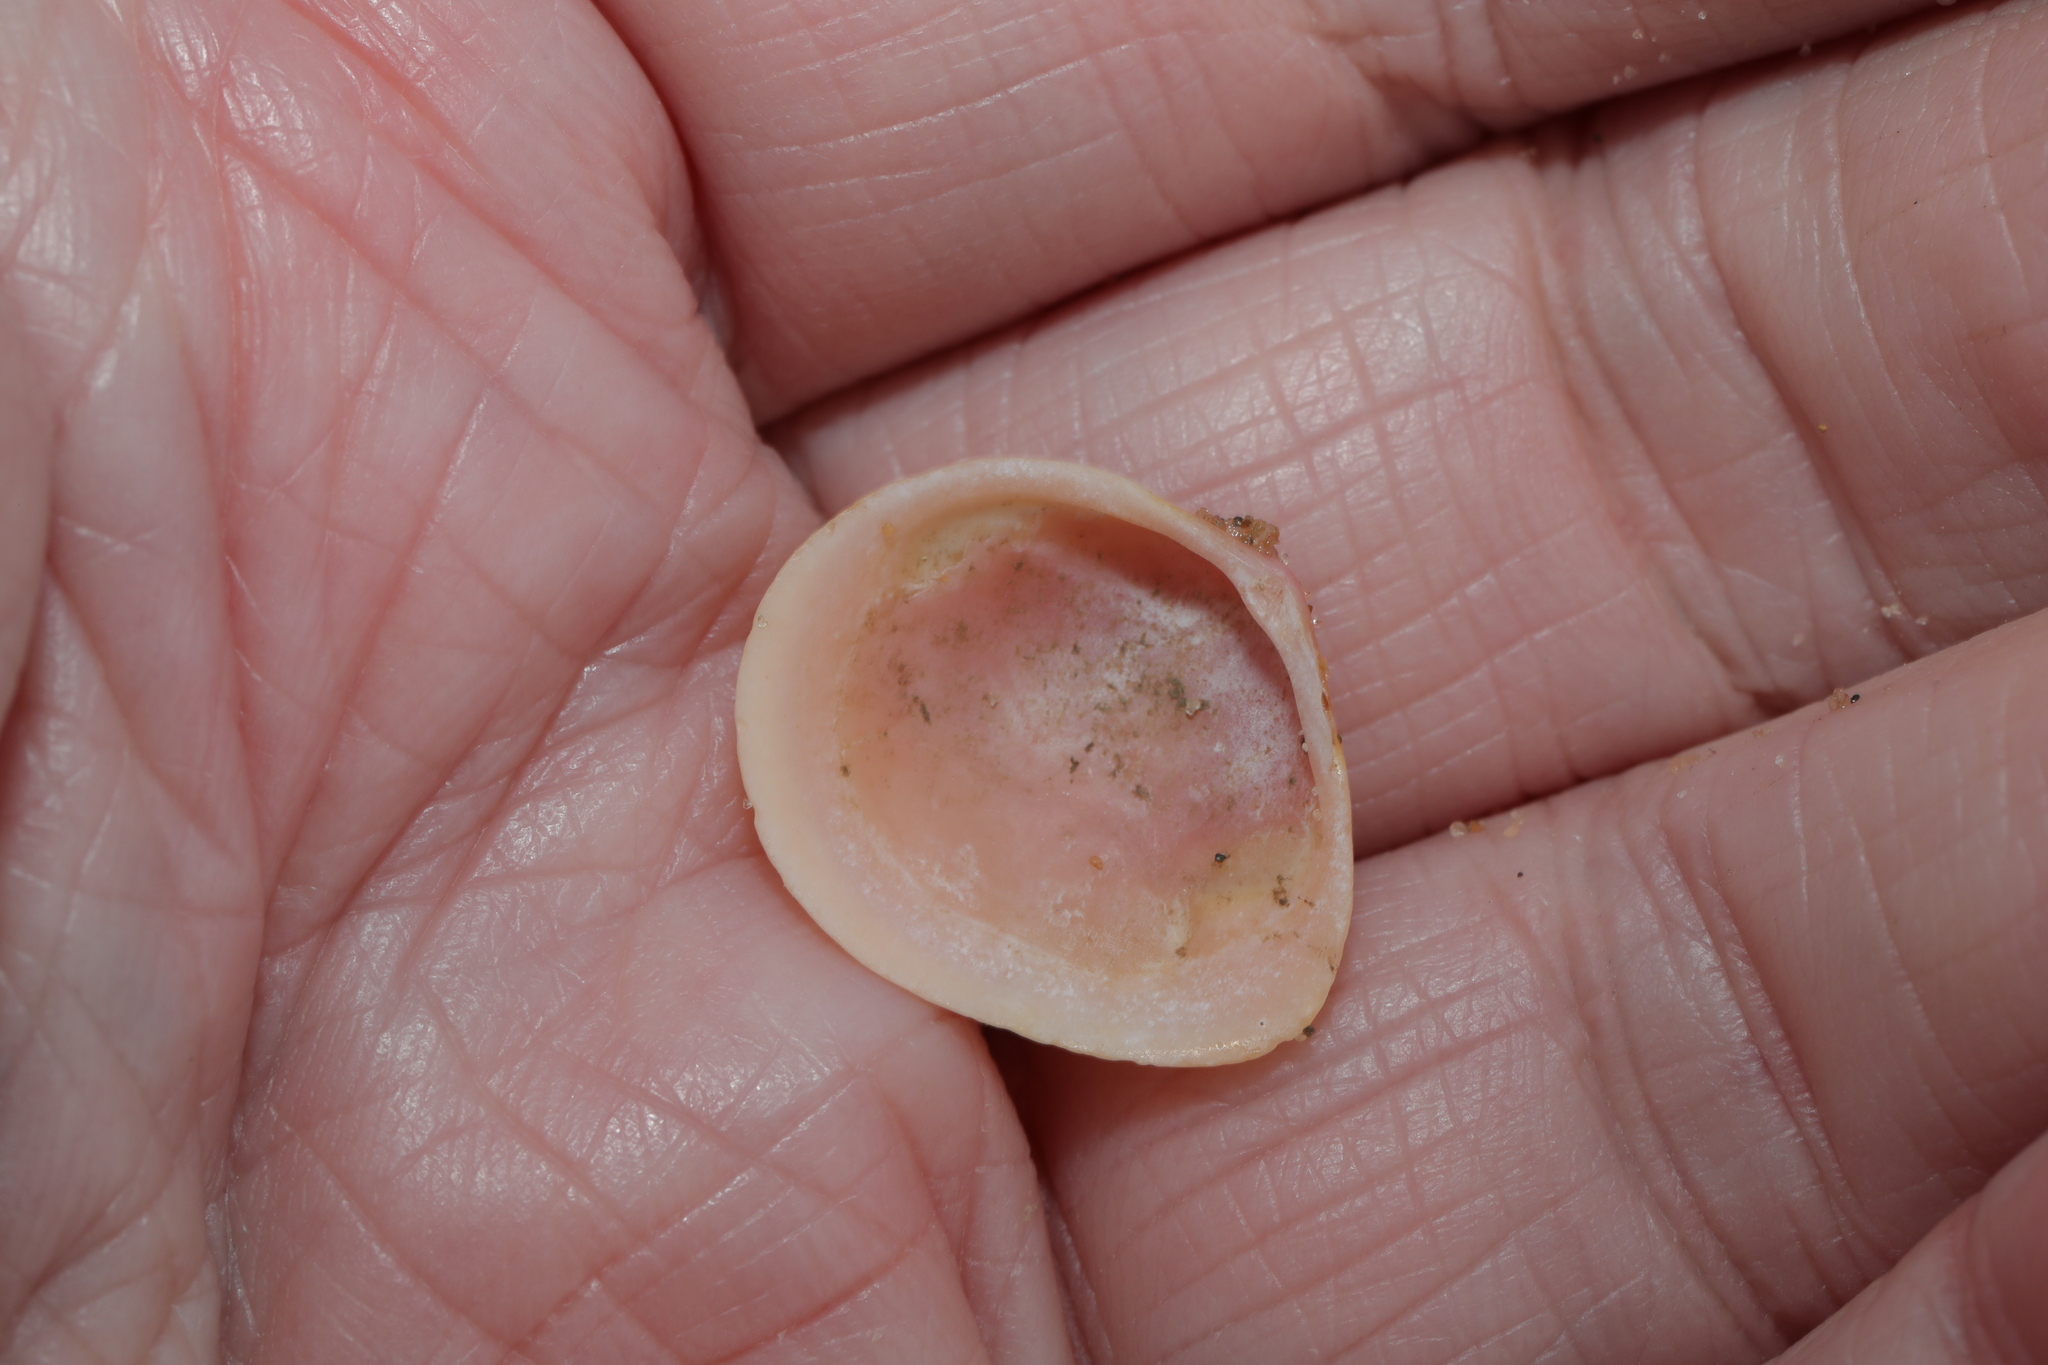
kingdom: Animalia
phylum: Mollusca
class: Bivalvia
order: Cardiida
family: Tellinidae
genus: Macoma
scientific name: Macoma balthica
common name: Baltic tellin
